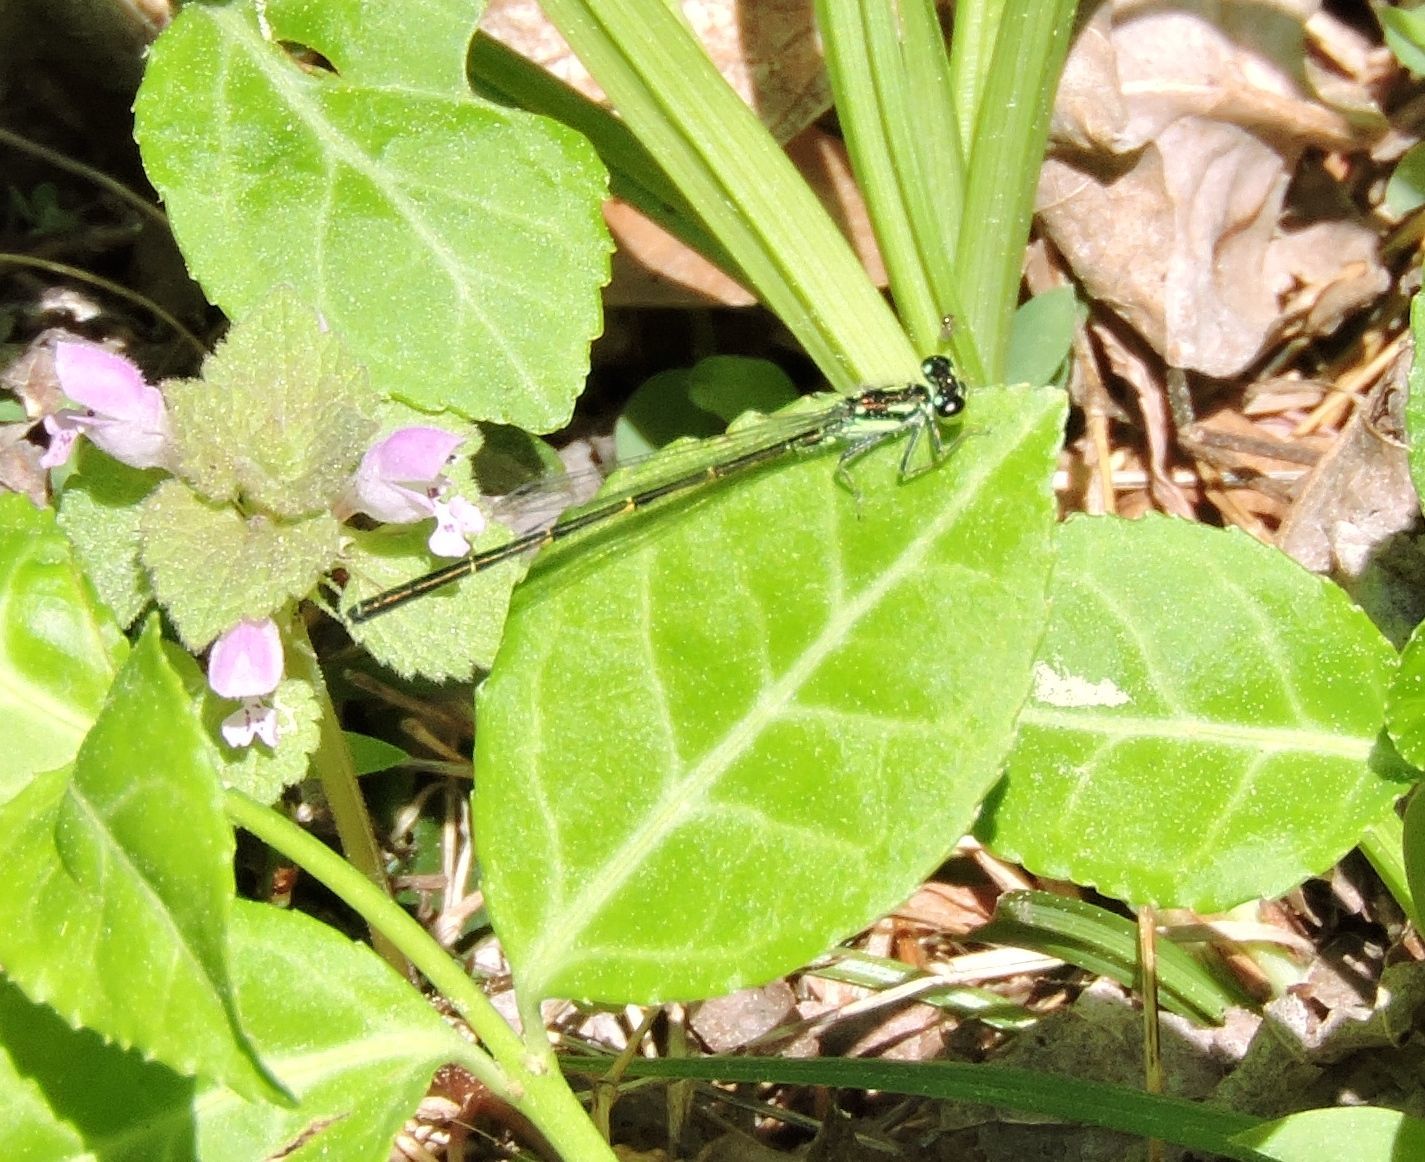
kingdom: Animalia
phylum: Arthropoda
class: Insecta
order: Odonata
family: Coenagrionidae
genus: Ischnura
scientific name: Ischnura posita
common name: Fragile forktail
